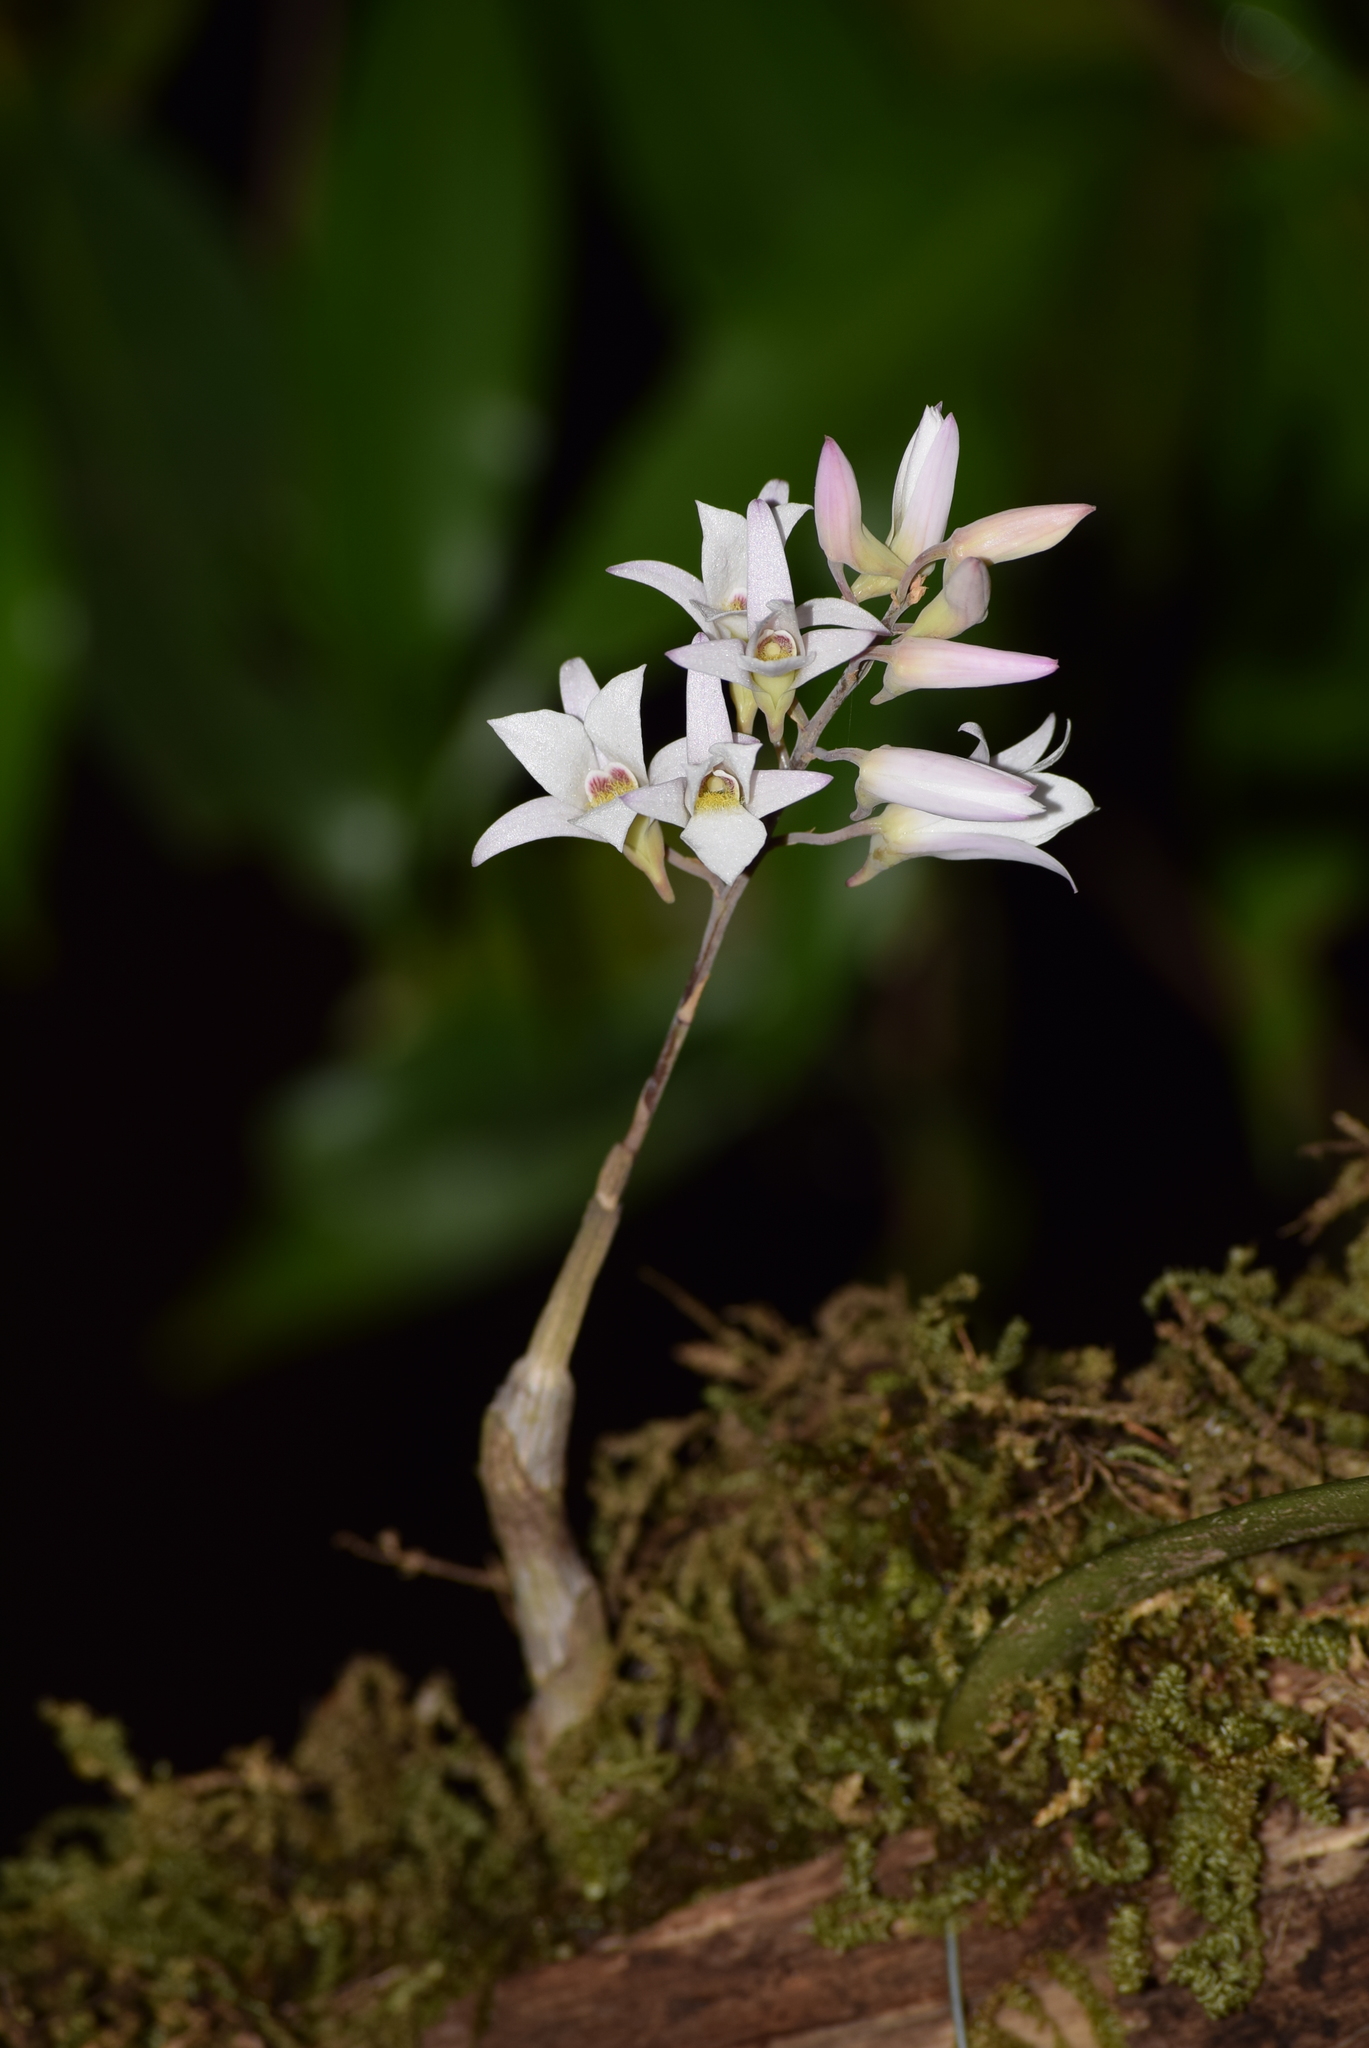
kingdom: Plantae
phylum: Tracheophyta
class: Liliopsida
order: Asparagales
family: Orchidaceae
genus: Dendrobium
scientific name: Dendrobium barbatulum
